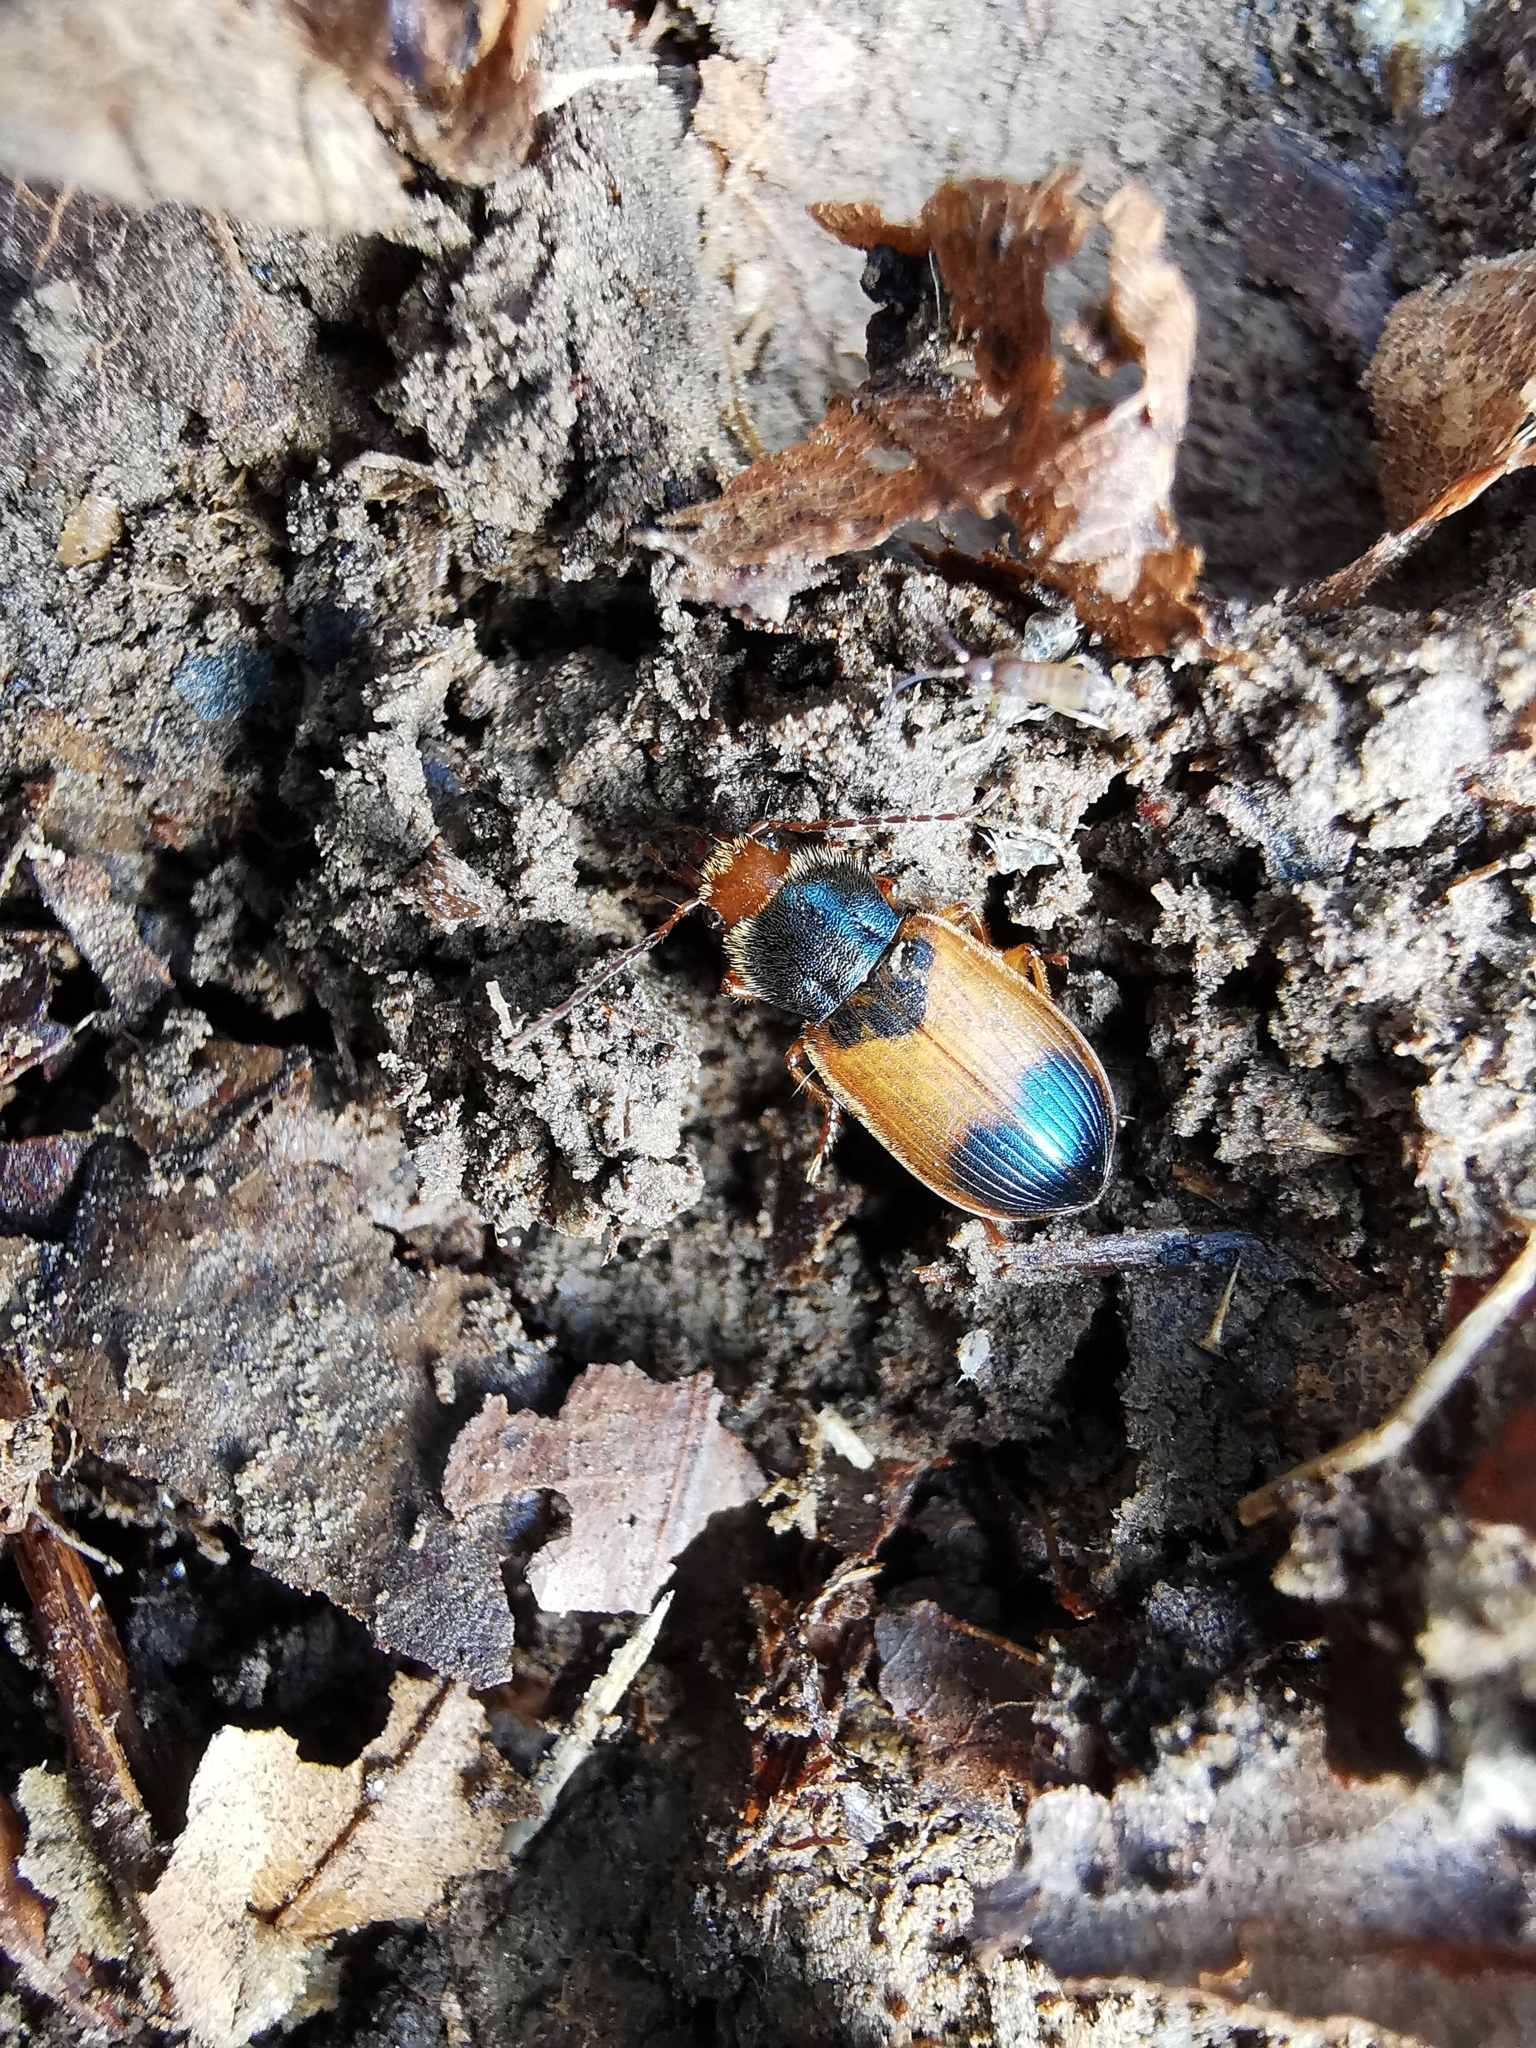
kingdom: Animalia
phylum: Arthropoda
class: Insecta
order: Coleoptera
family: Carabidae
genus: Diachromus
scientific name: Diachromus germanus
